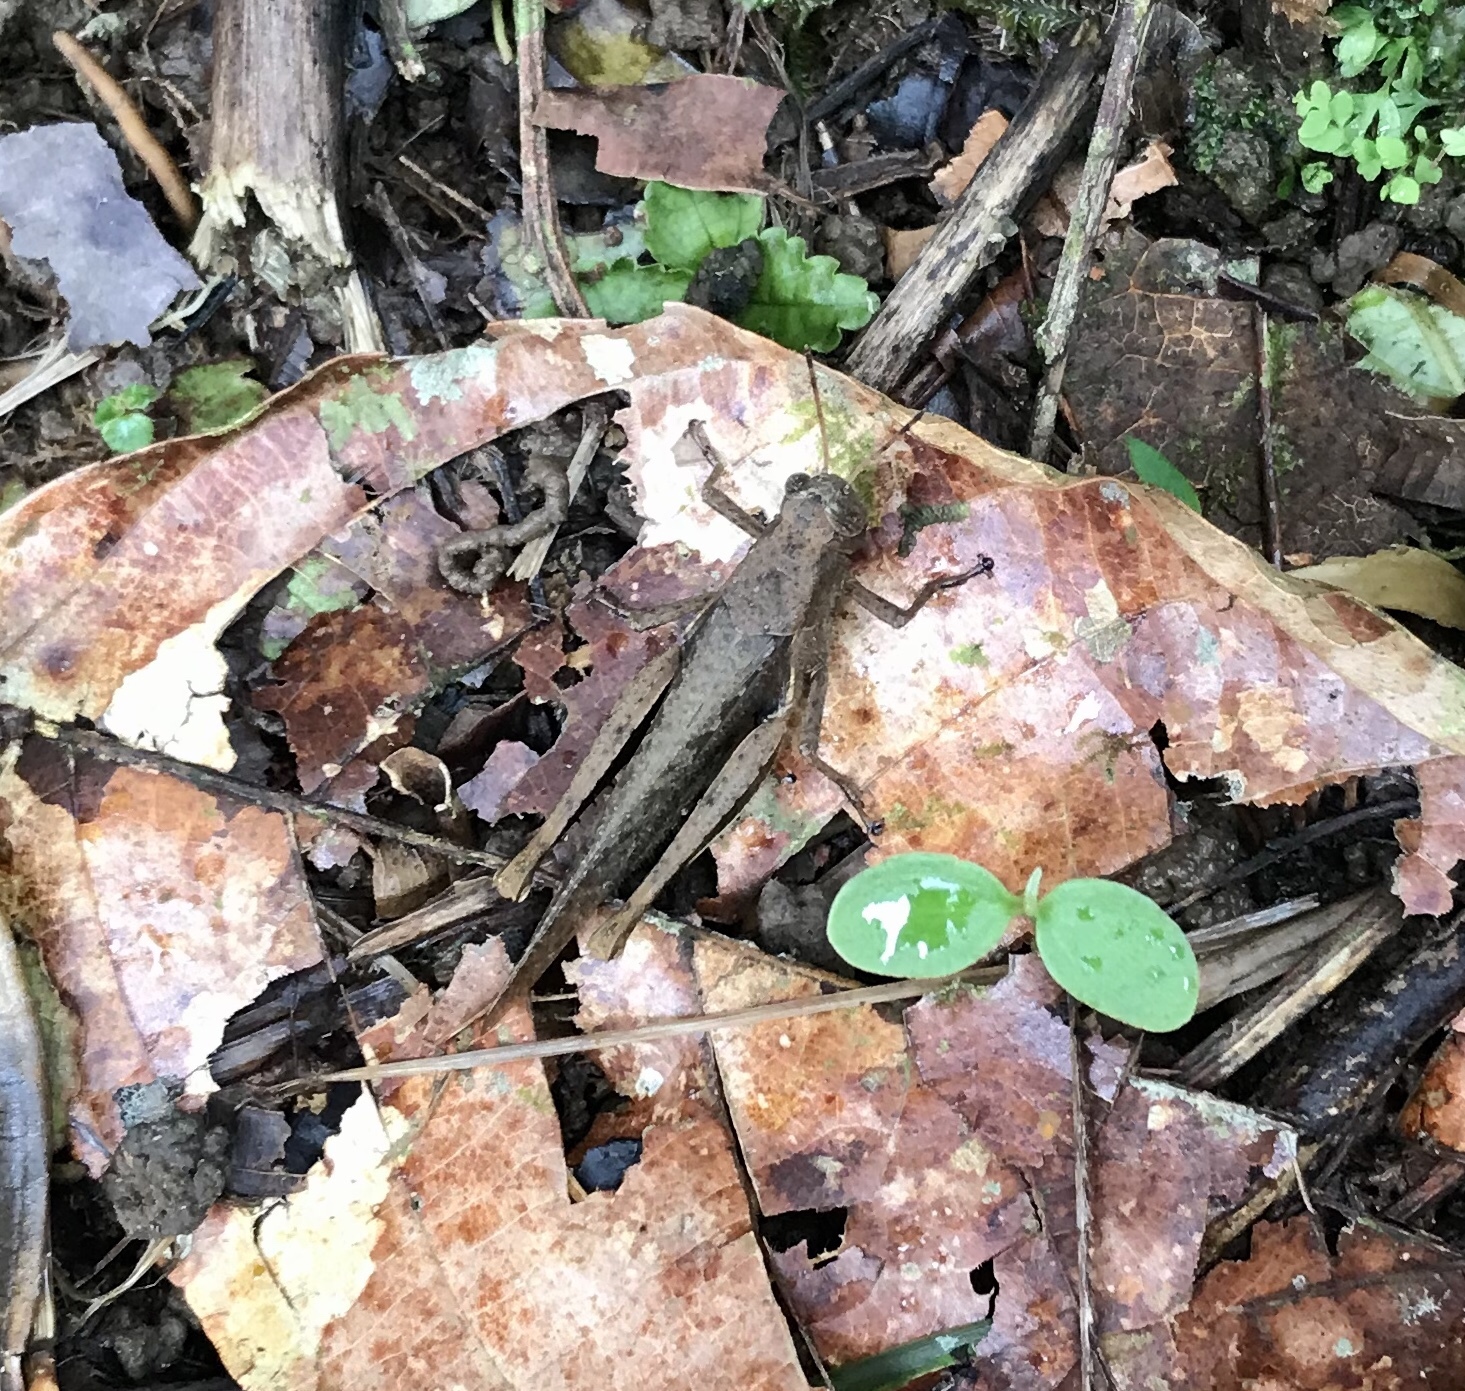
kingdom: Animalia
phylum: Arthropoda
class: Insecta
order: Orthoptera
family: Acrididae
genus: Abracris
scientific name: Abracris flavolineata
